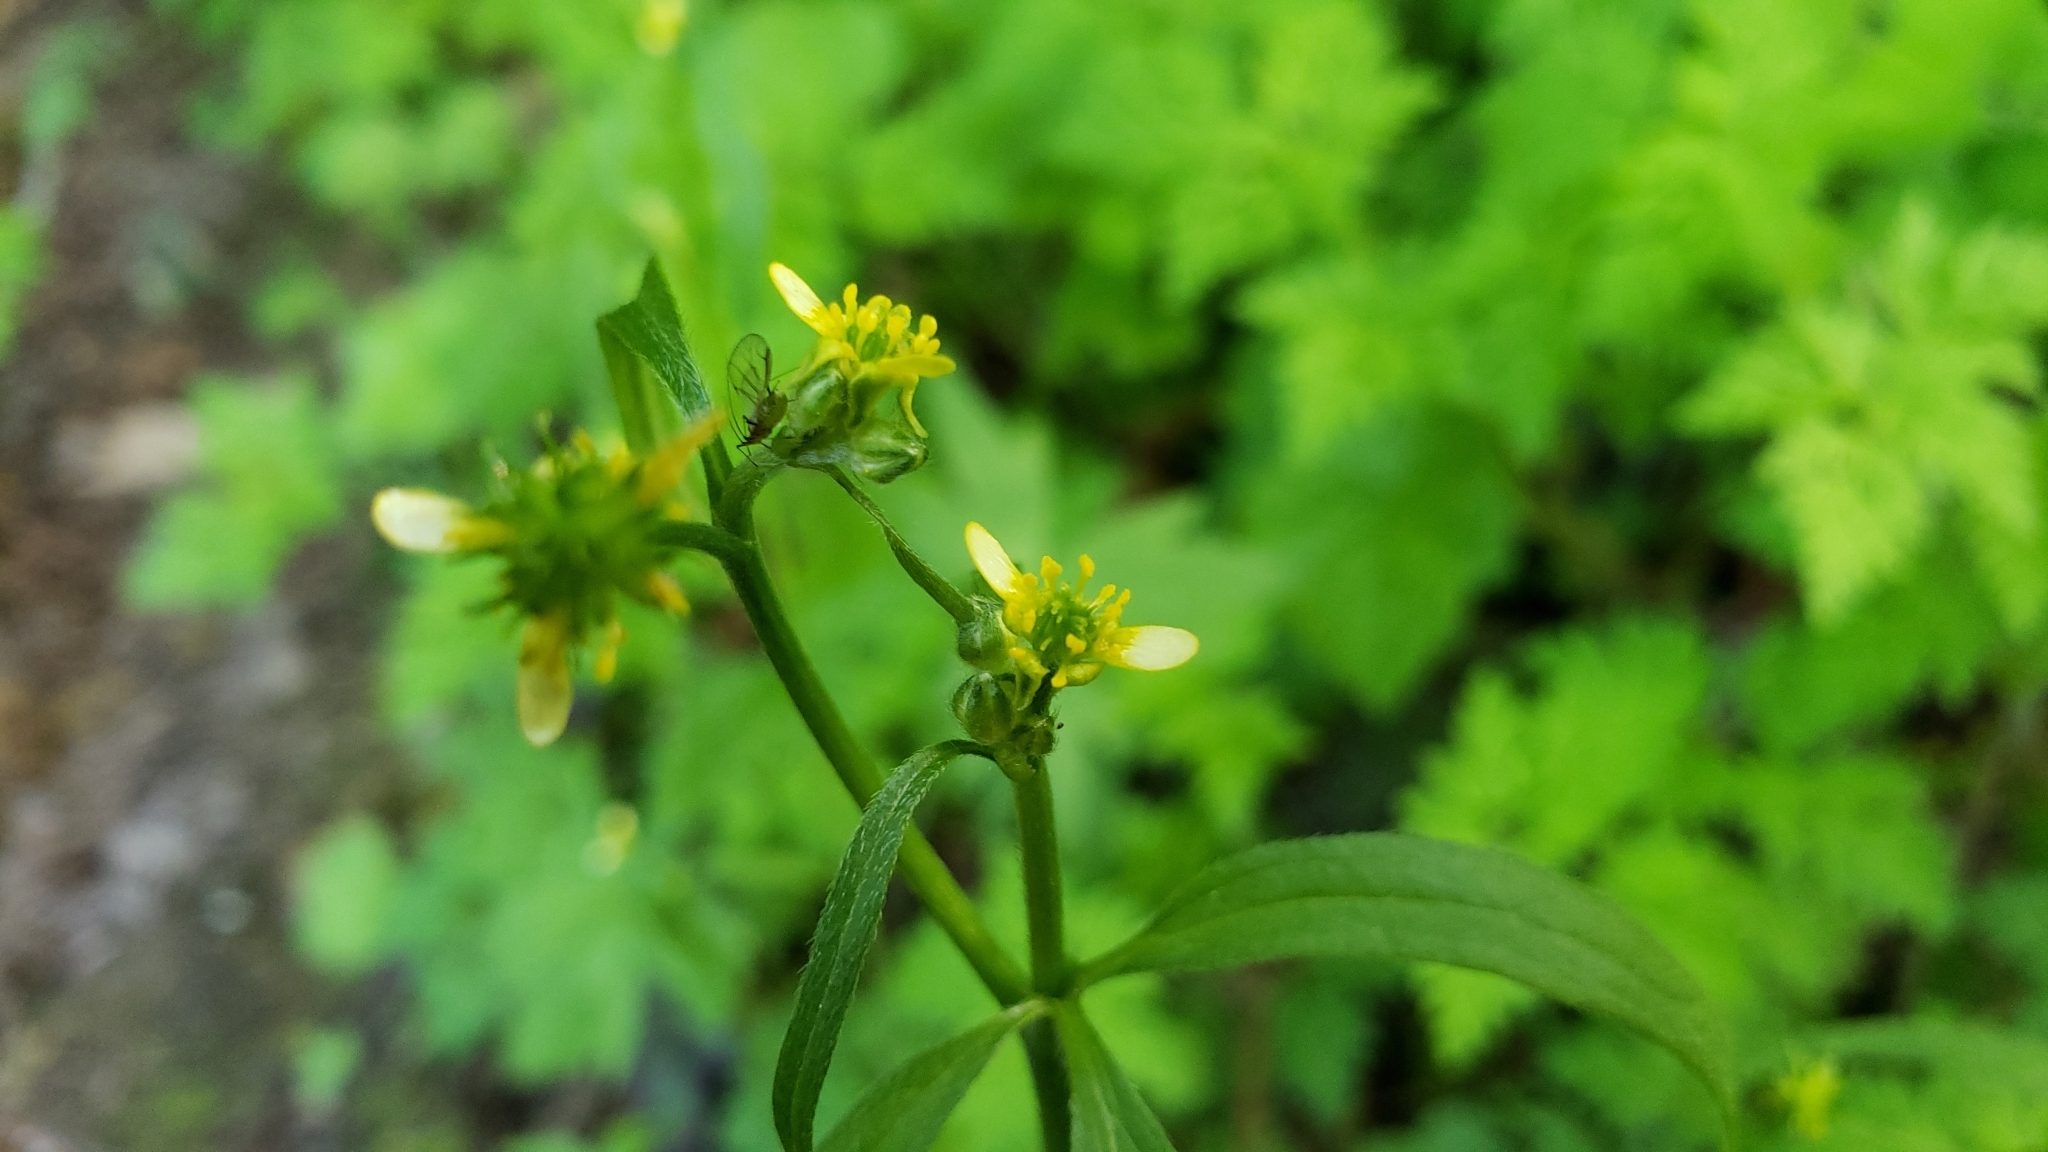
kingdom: Plantae
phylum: Tracheophyta
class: Magnoliopsida
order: Ranunculales
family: Ranunculaceae
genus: Ranunculus
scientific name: Ranunculus uncinatus
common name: Little buttercup
